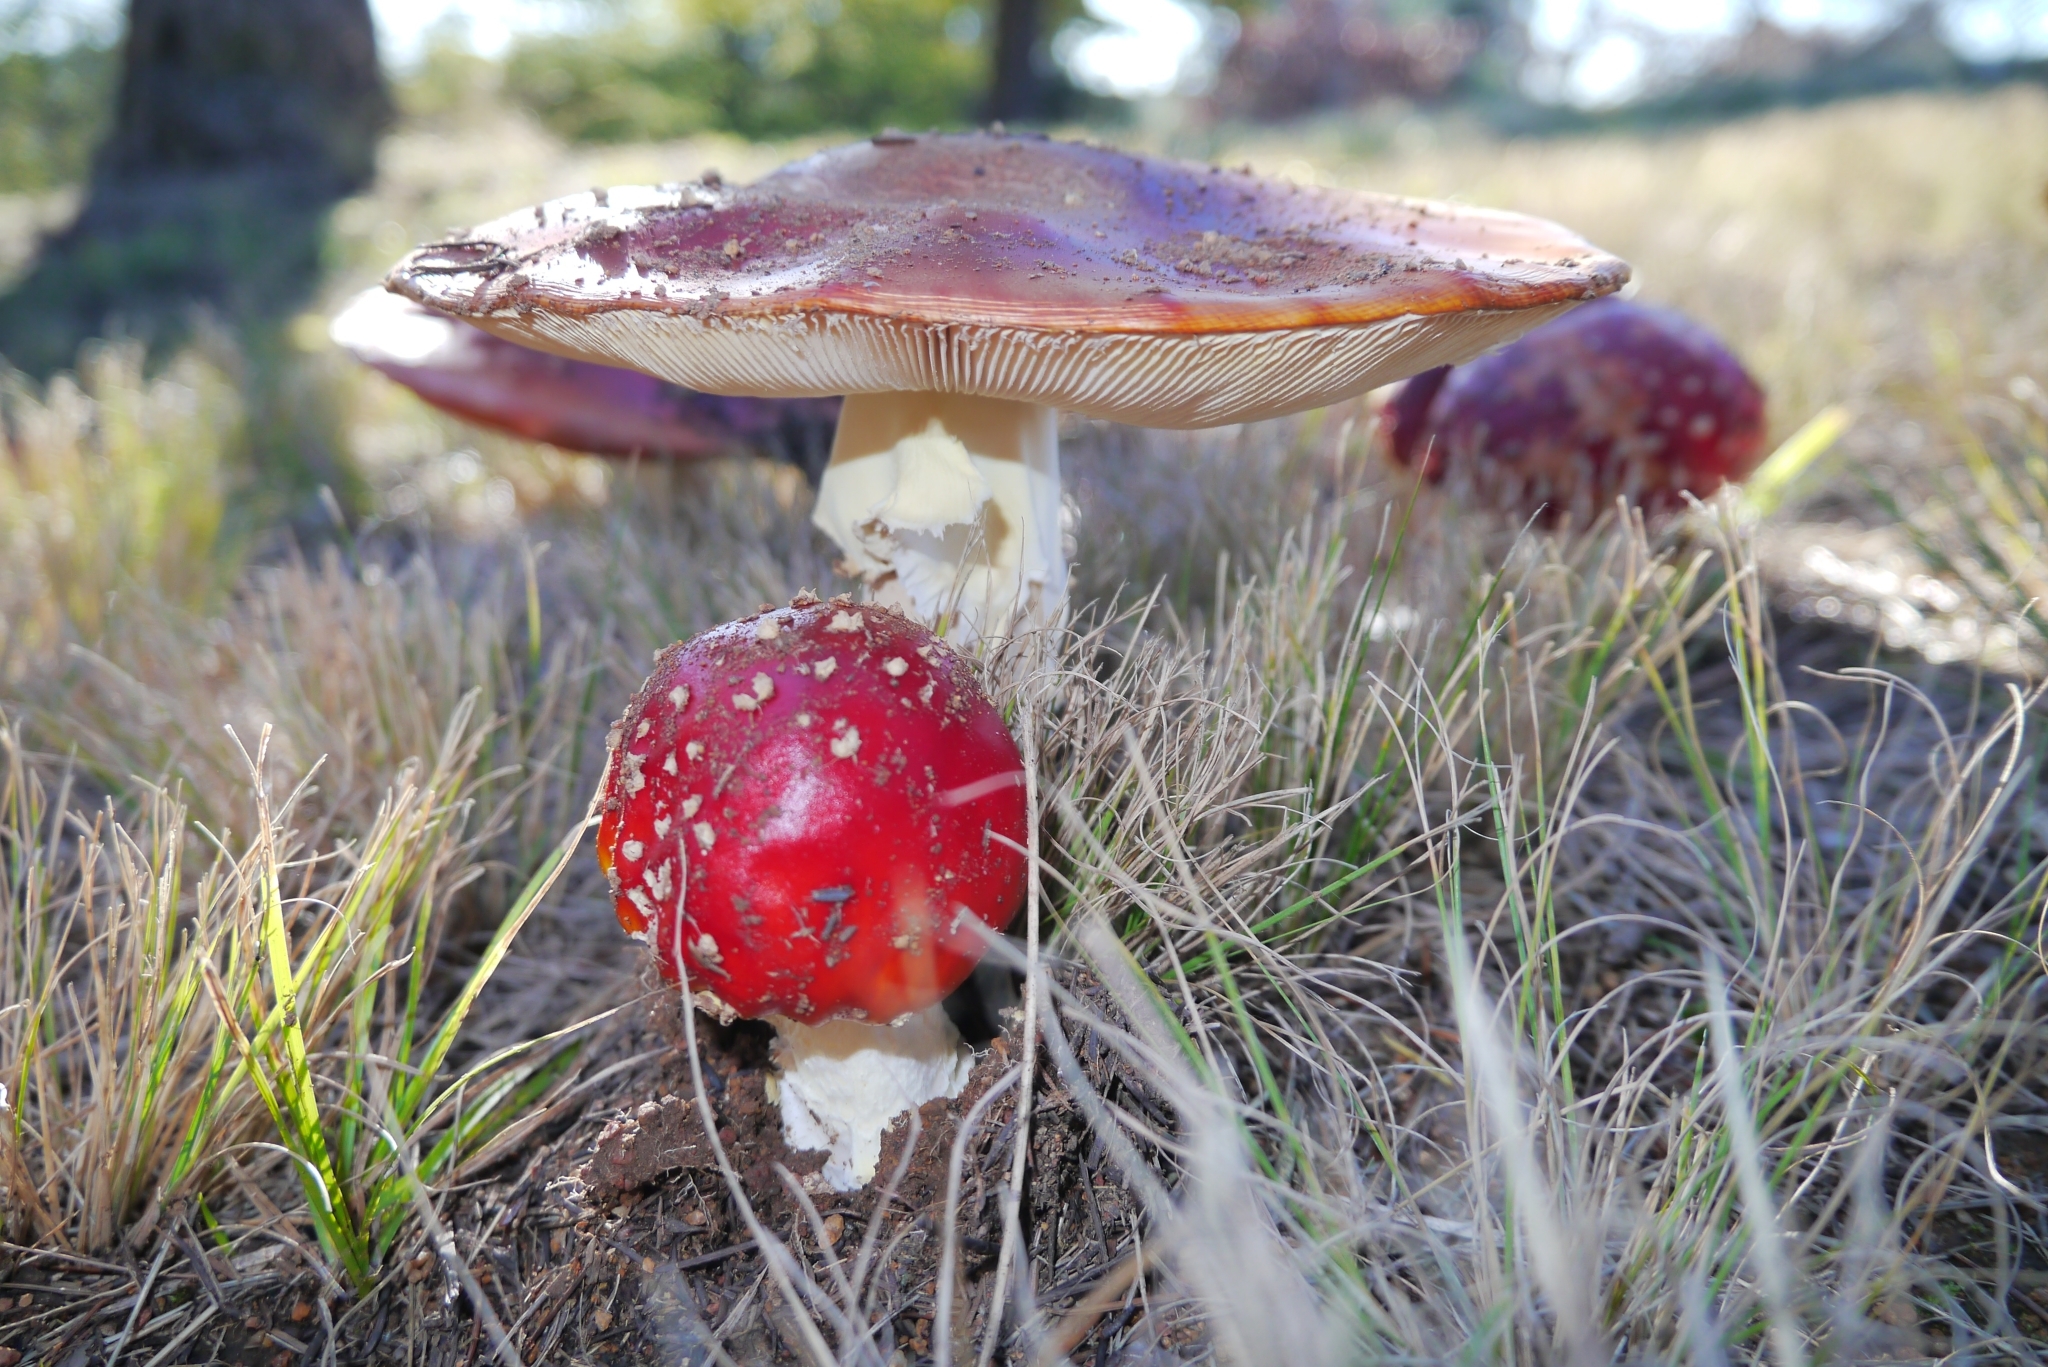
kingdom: Fungi
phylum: Basidiomycota
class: Agaricomycetes
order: Agaricales
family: Amanitaceae
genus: Amanita
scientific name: Amanita muscaria
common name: Fly agaric
